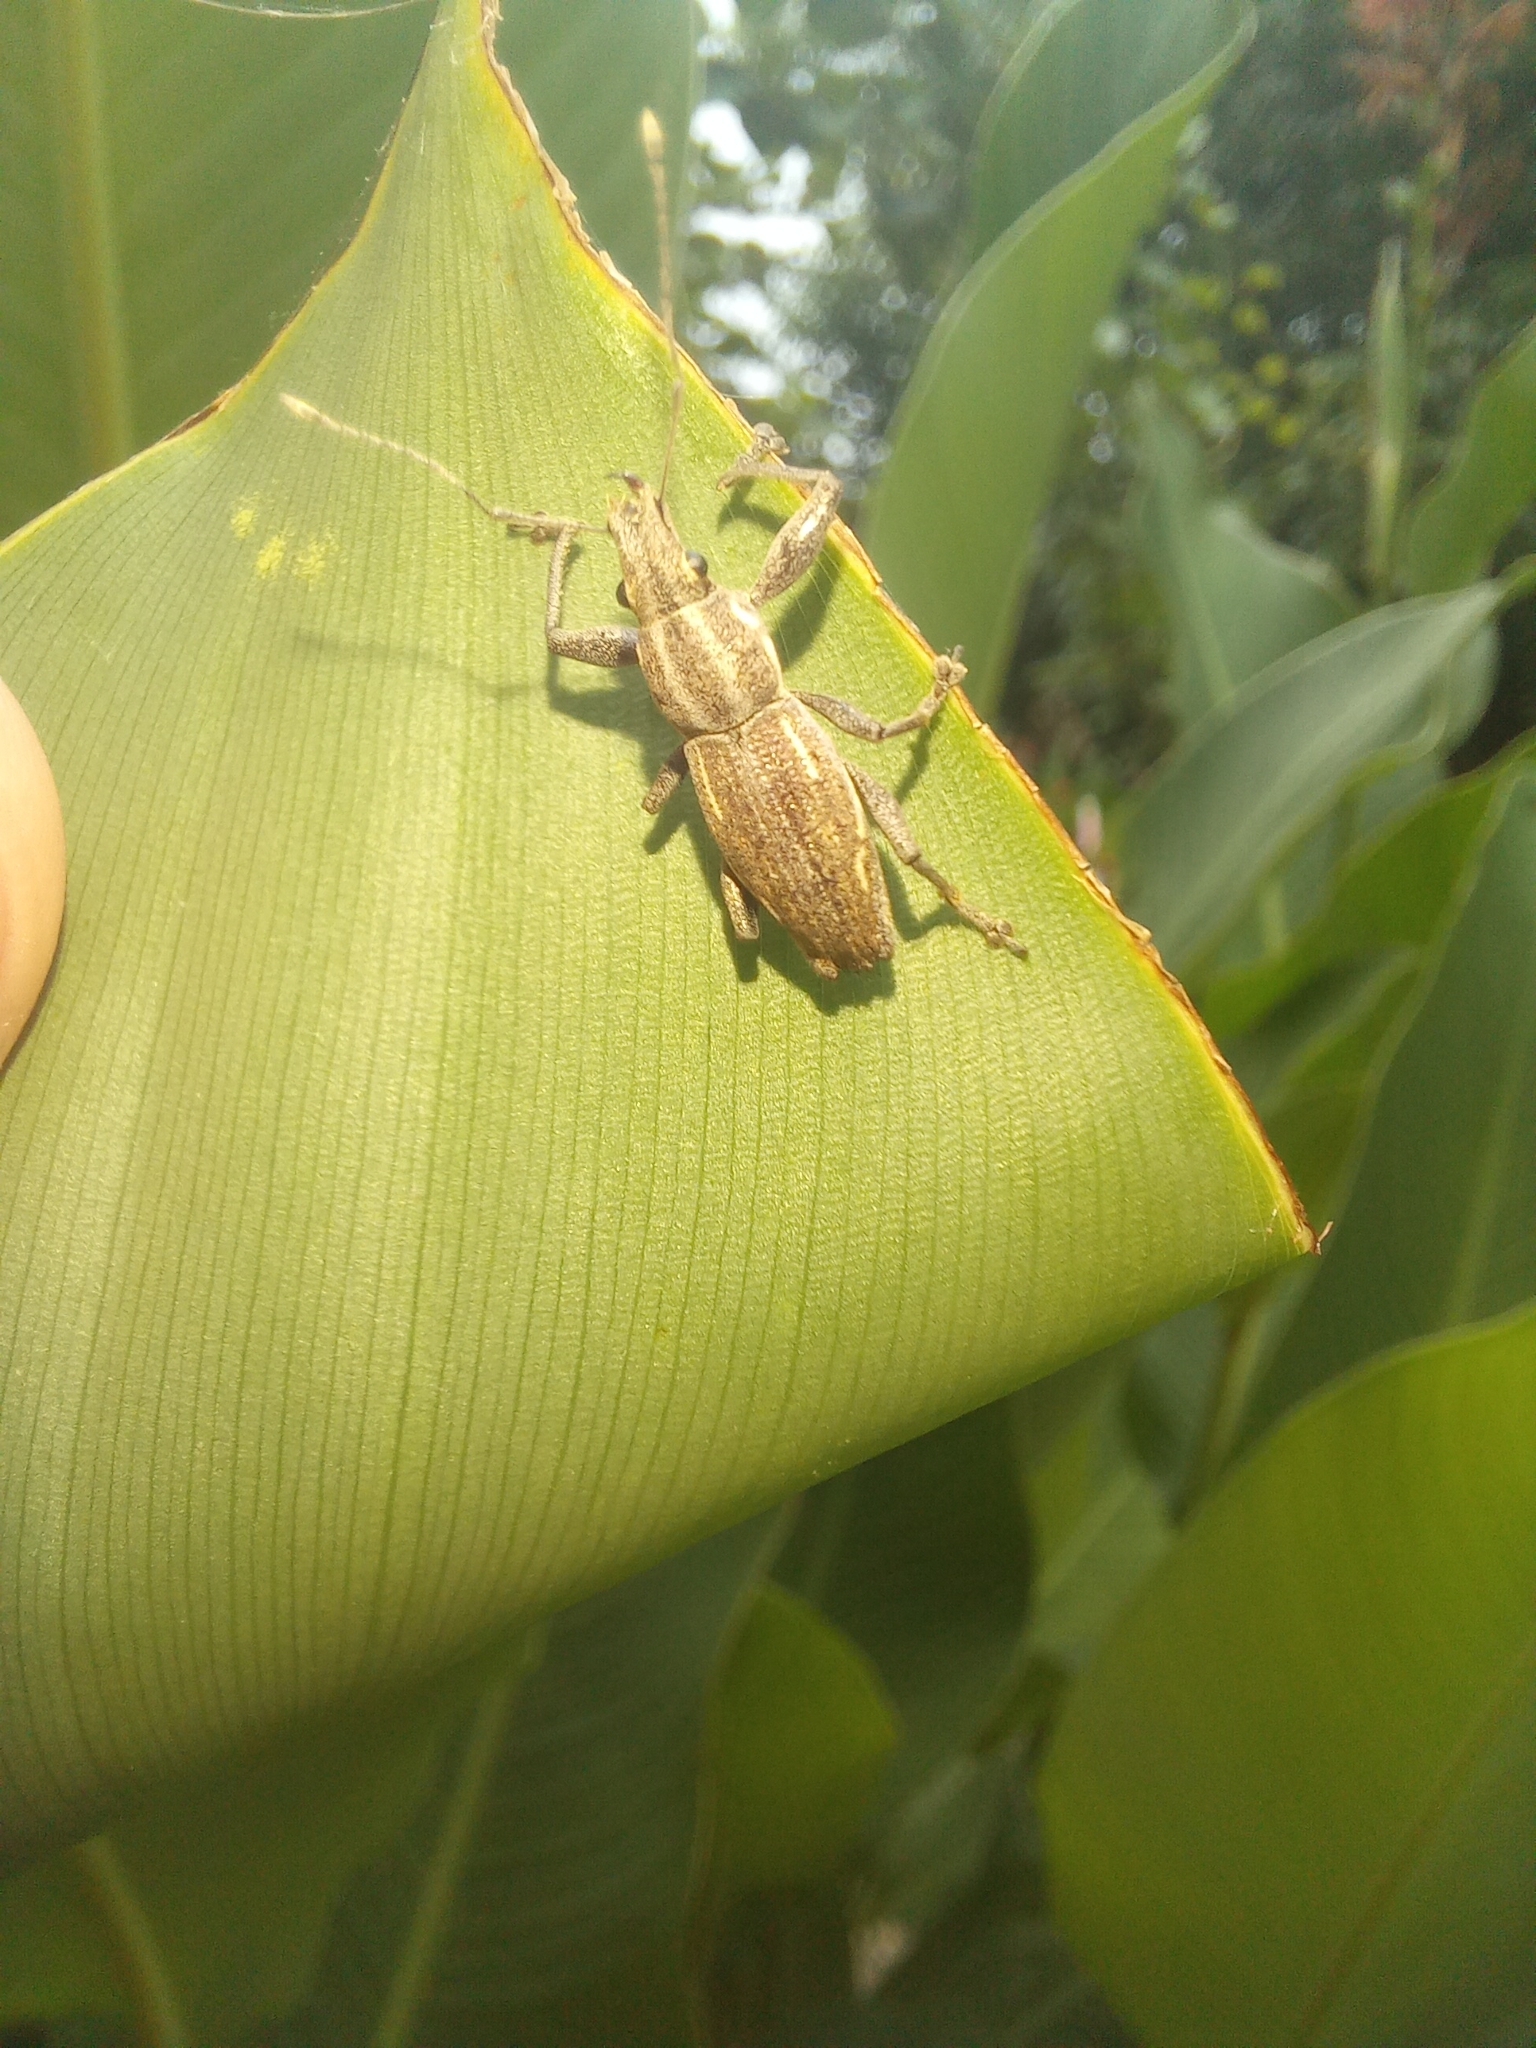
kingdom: Animalia
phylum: Arthropoda
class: Insecta
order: Coleoptera
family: Curculionidae
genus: Naupactus
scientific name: Naupactus xanthographus
